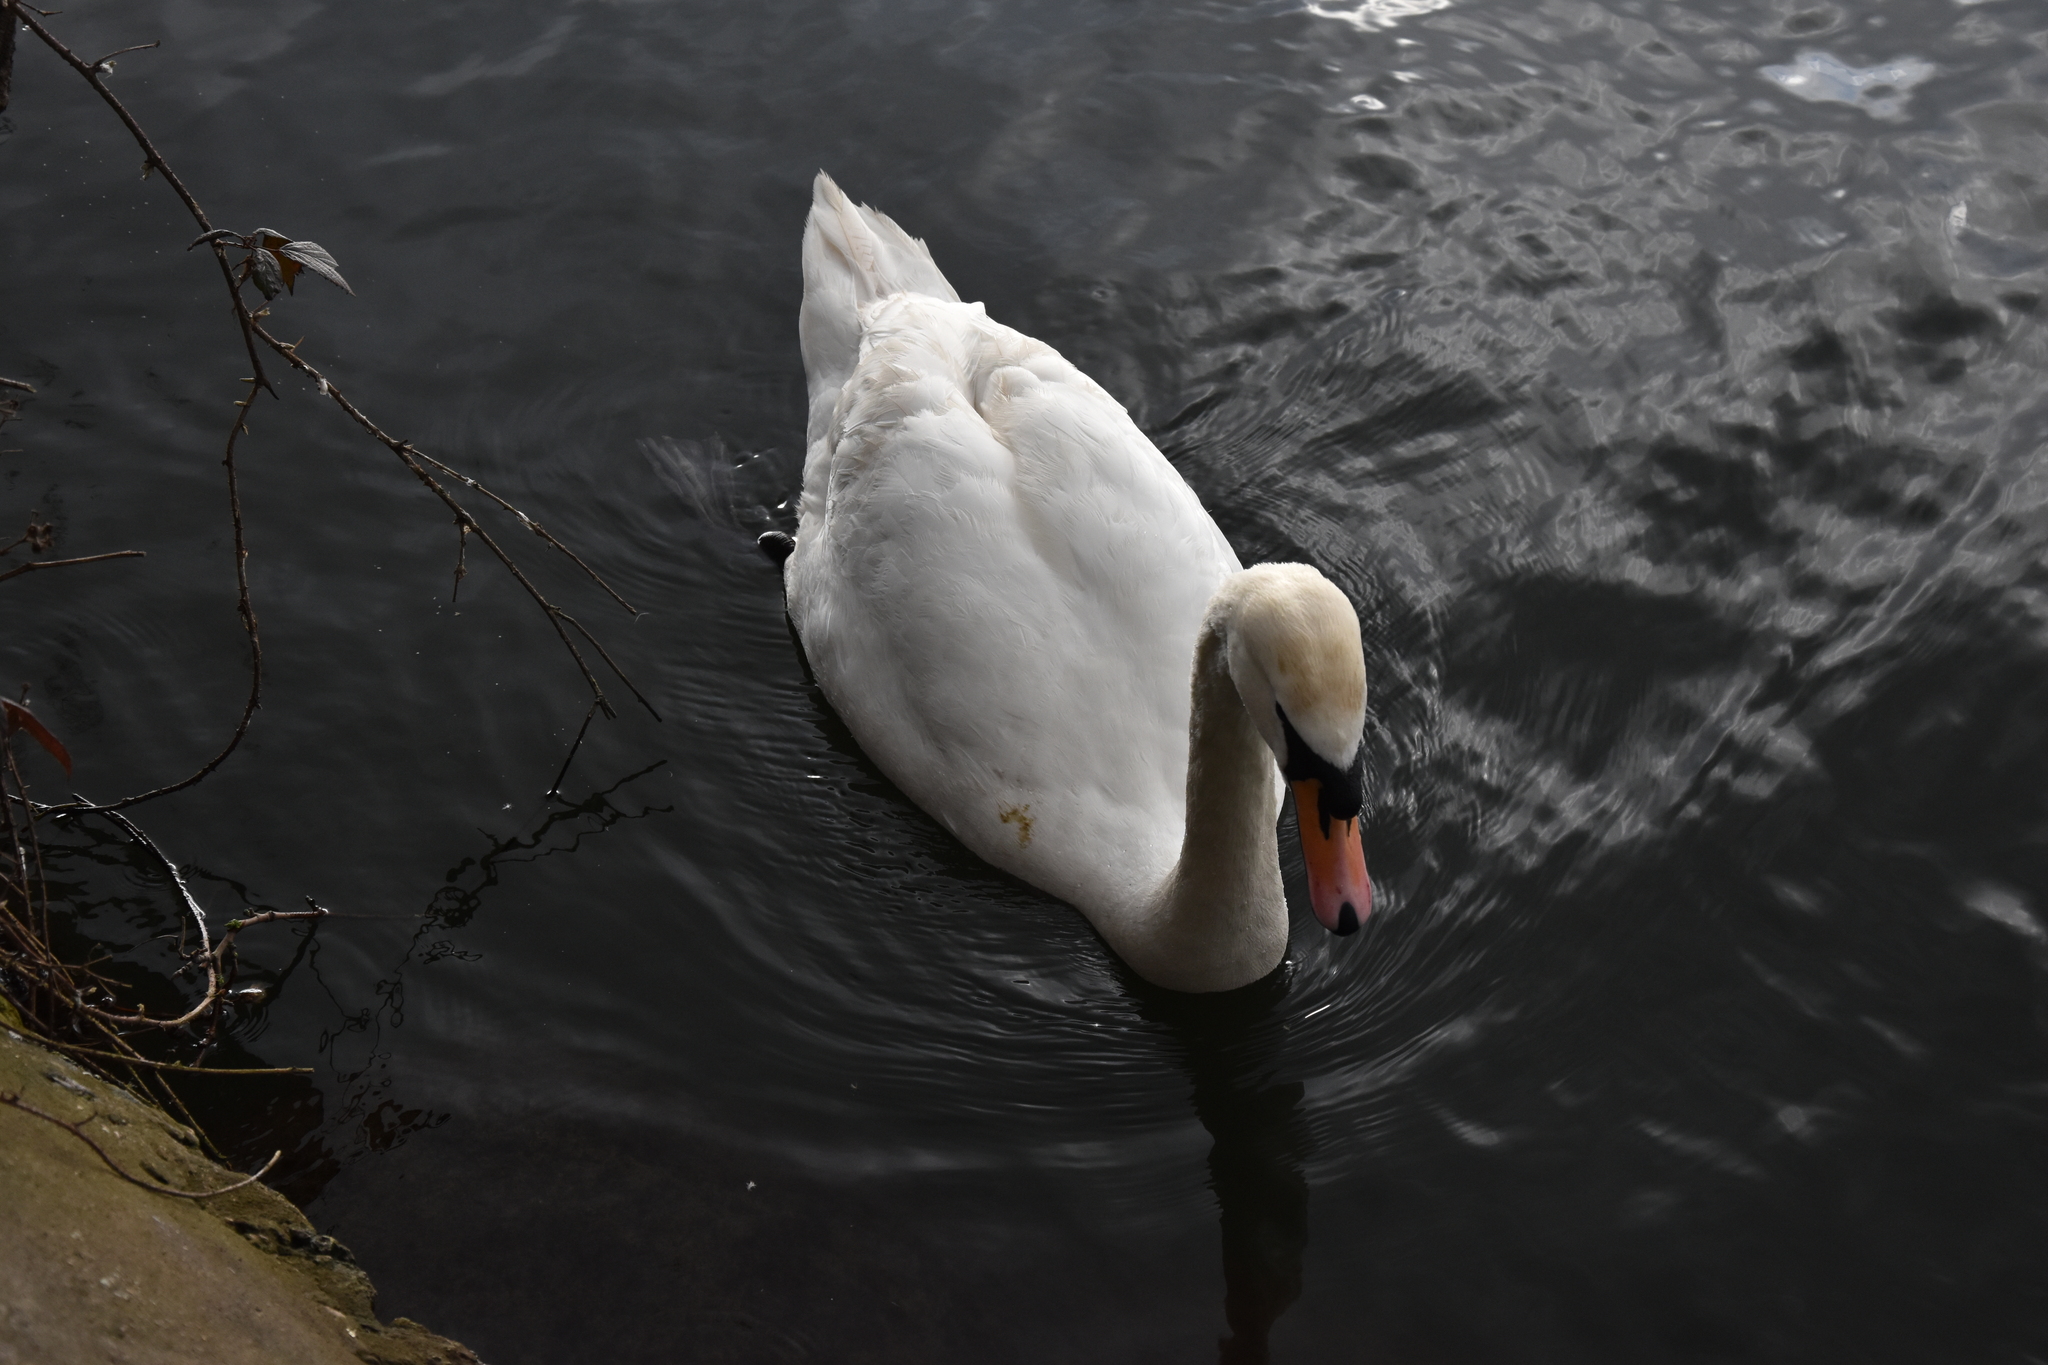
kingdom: Animalia
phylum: Chordata
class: Aves
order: Anseriformes
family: Anatidae
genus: Cygnus
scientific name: Cygnus olor
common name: Mute swan
